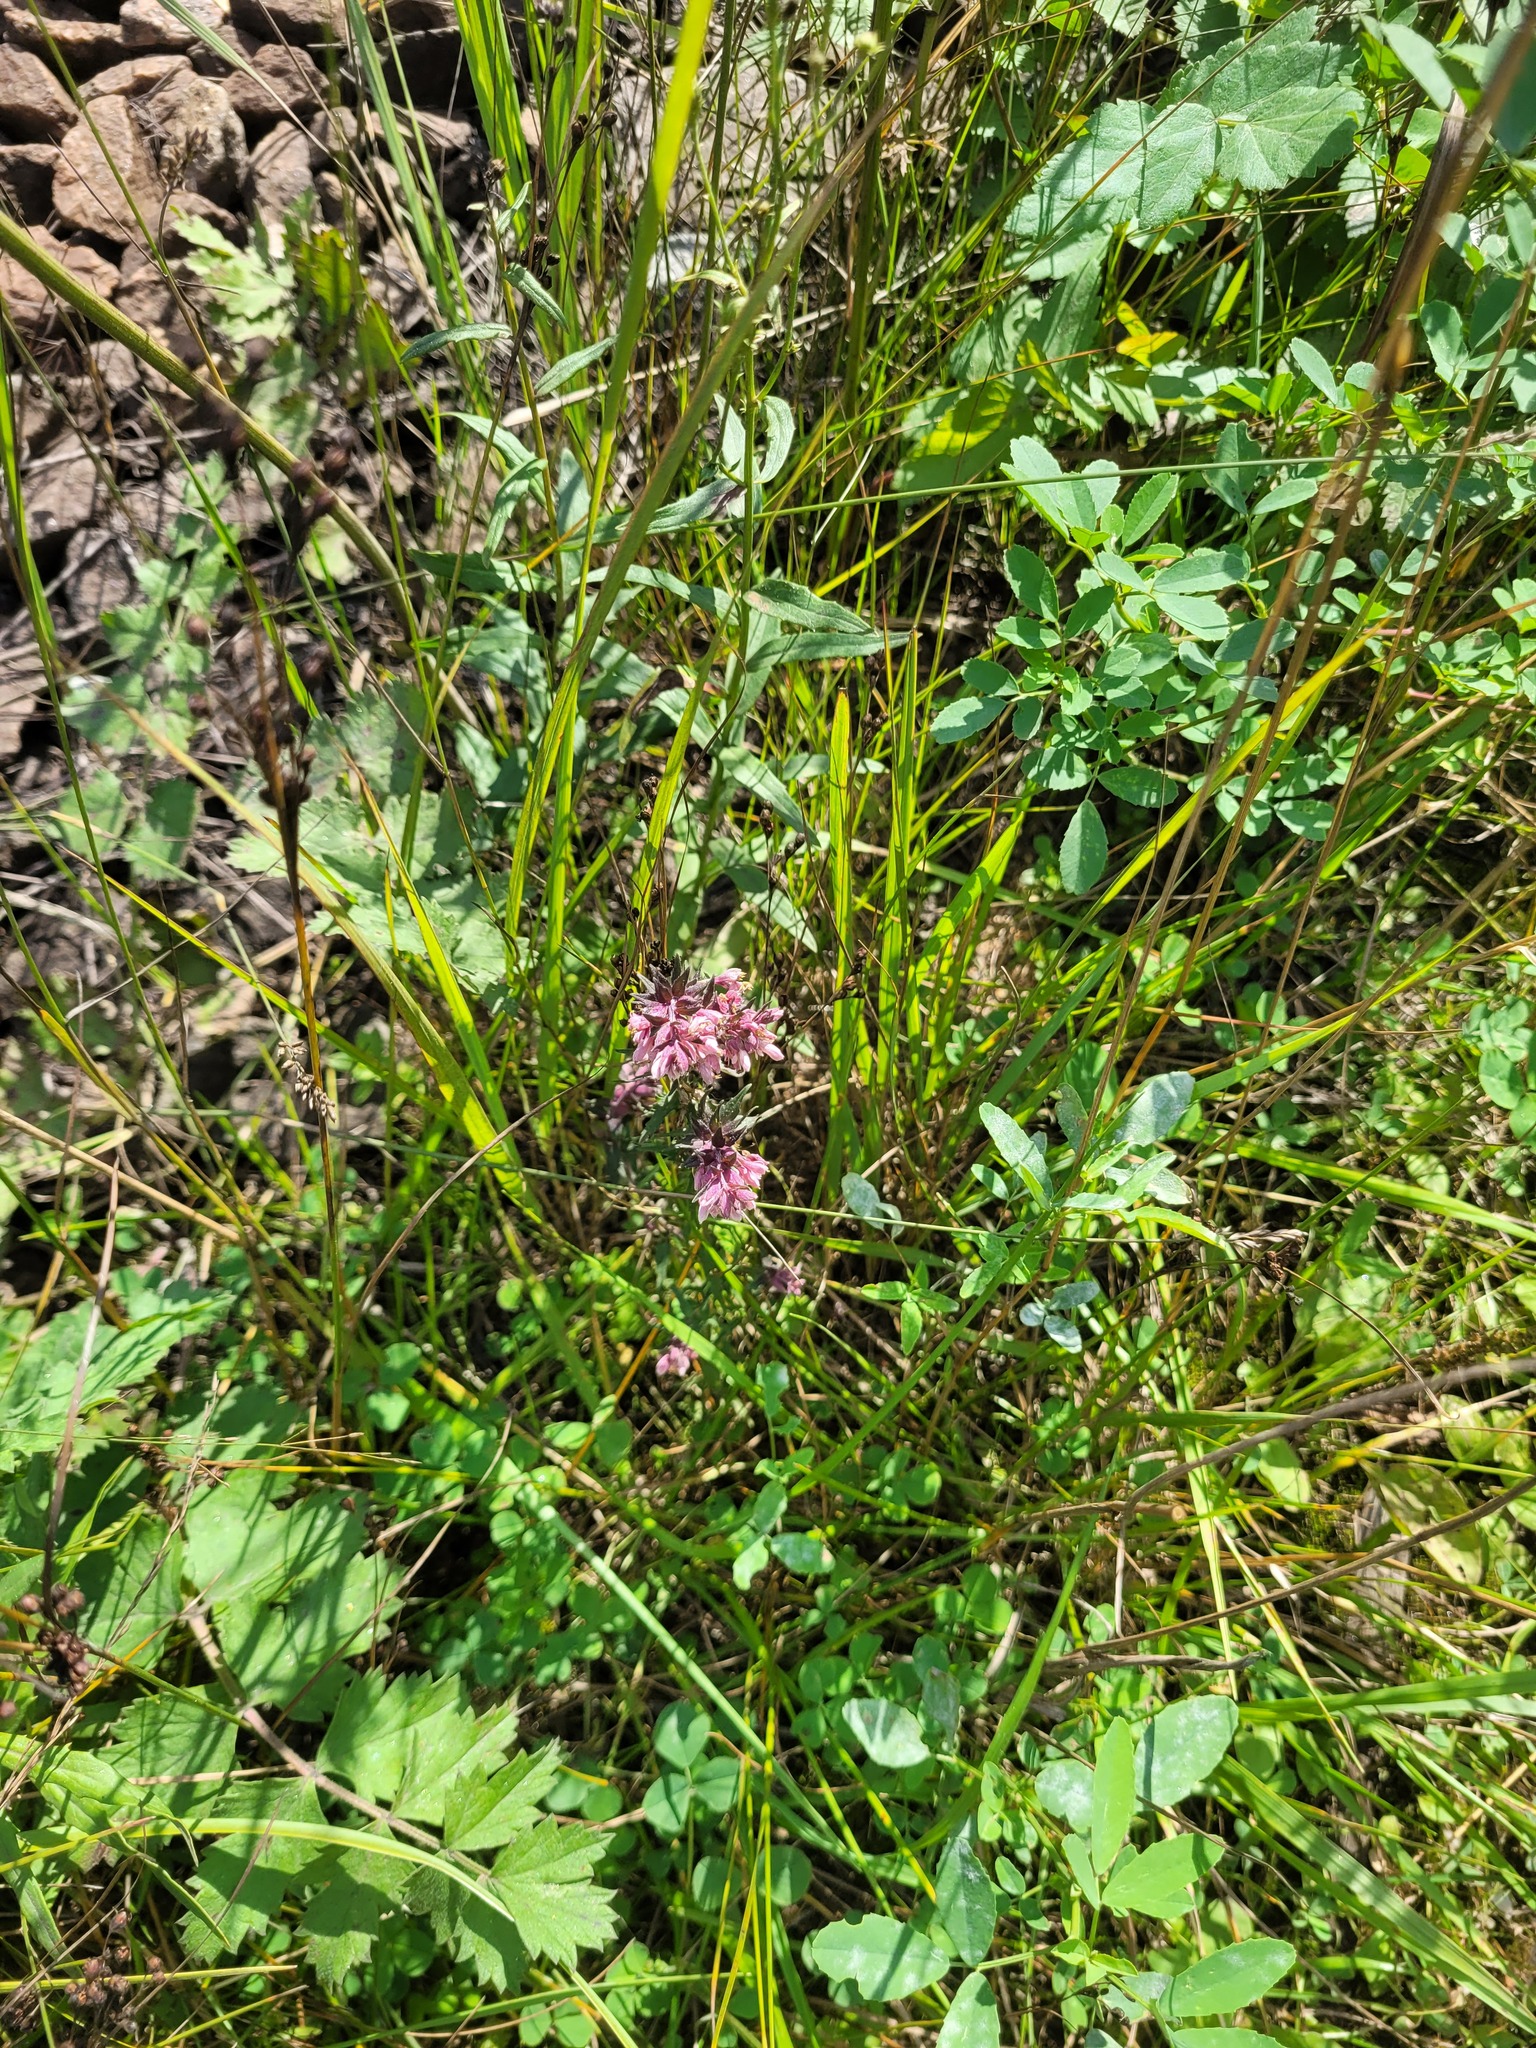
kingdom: Plantae
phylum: Tracheophyta
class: Magnoliopsida
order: Lamiales
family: Orobanchaceae
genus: Odontites
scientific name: Odontites vulgaris
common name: Broomrape
